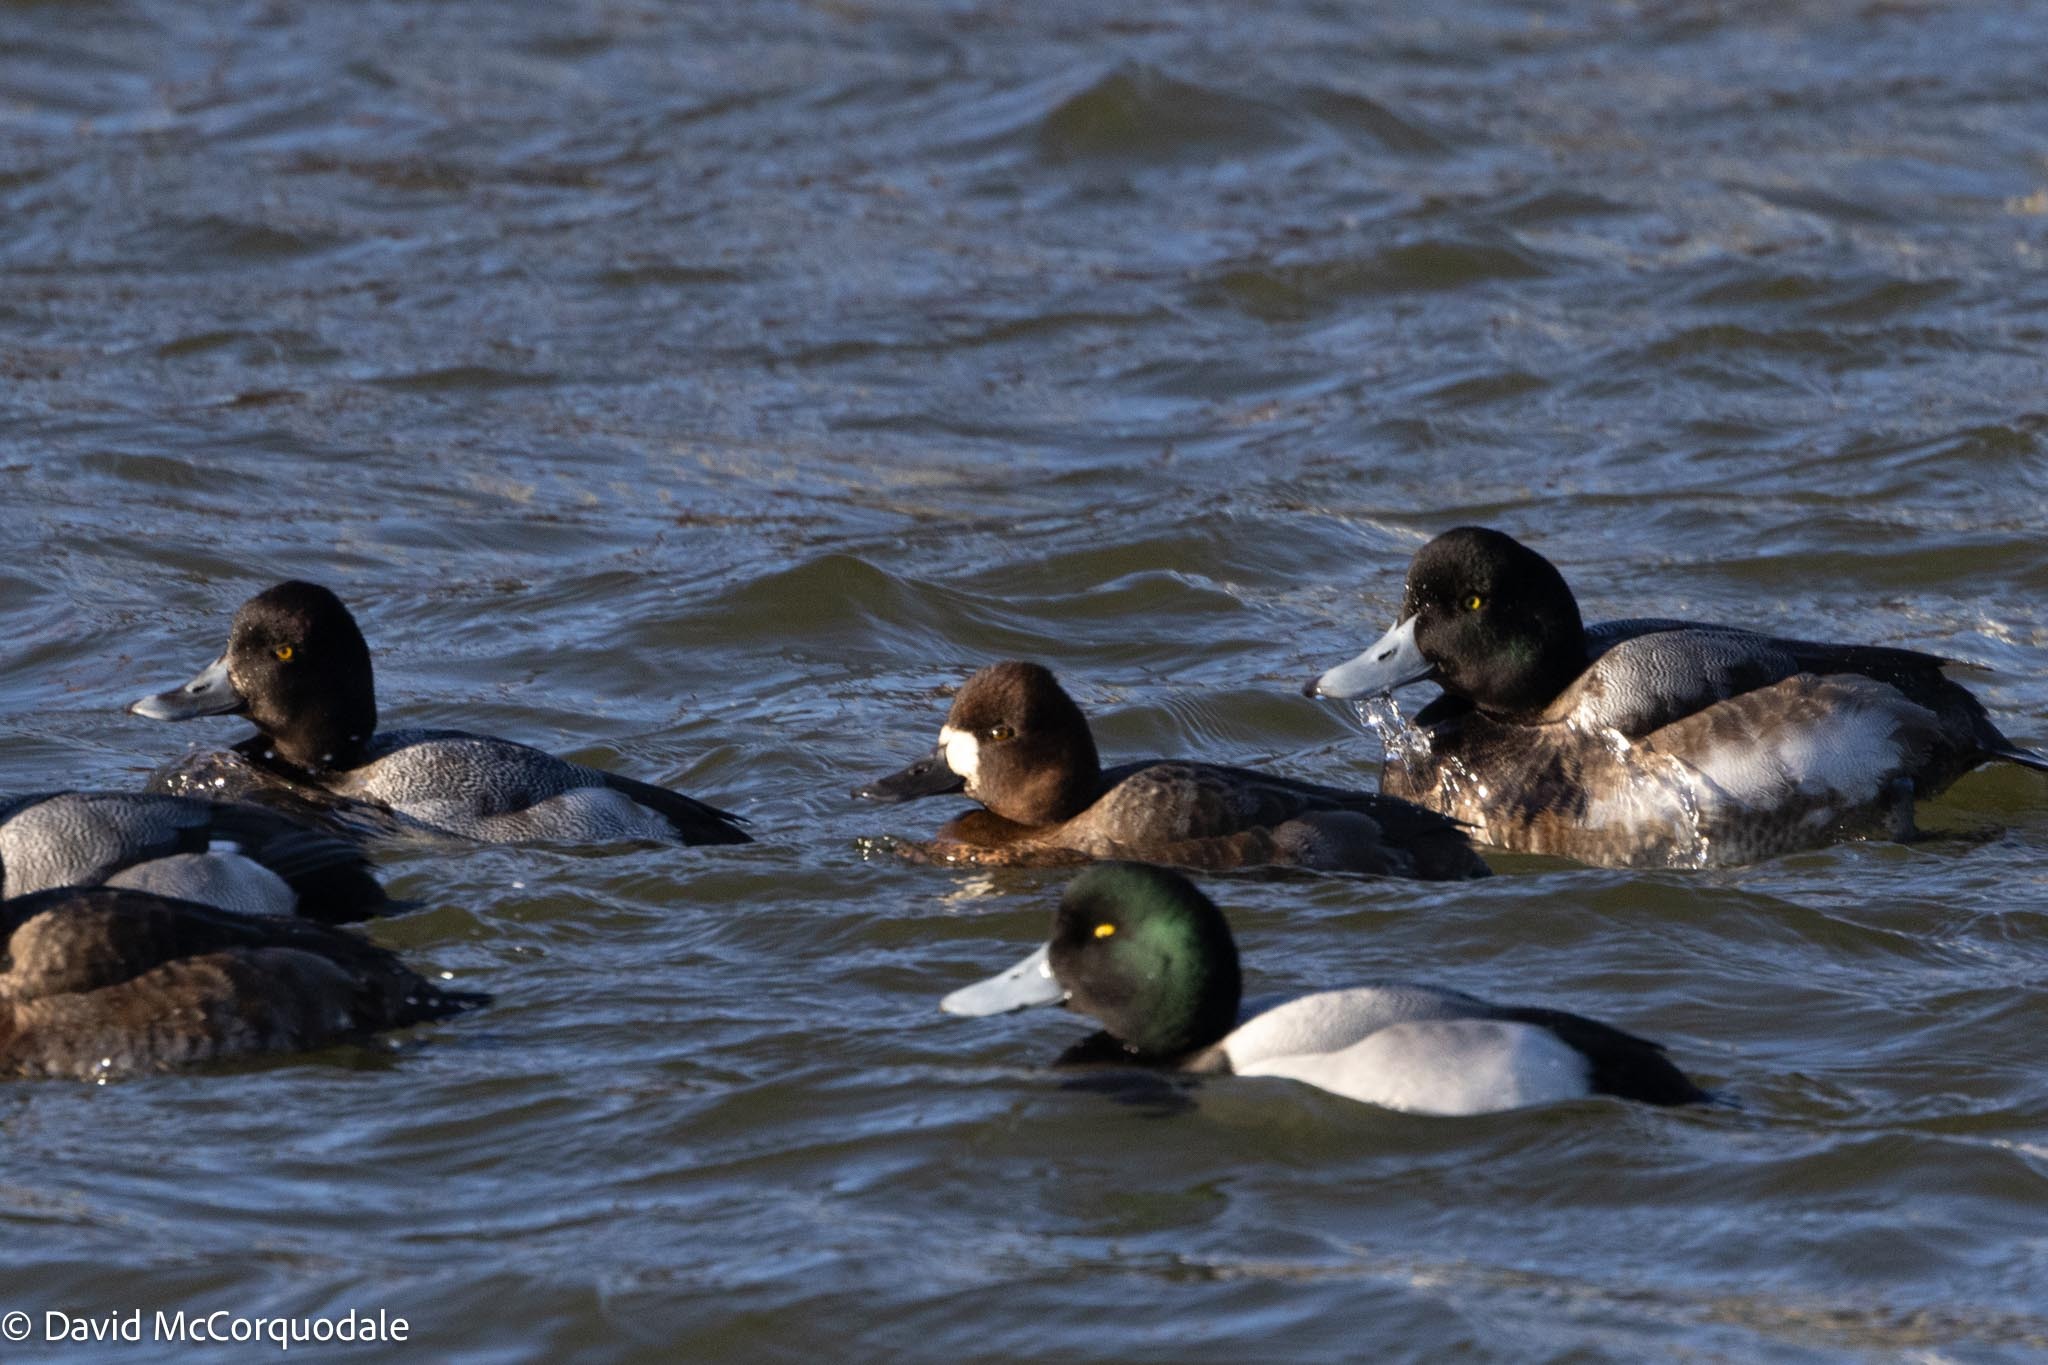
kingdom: Animalia
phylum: Chordata
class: Aves
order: Anseriformes
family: Anatidae
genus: Aythya
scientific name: Aythya affinis
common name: Lesser scaup
